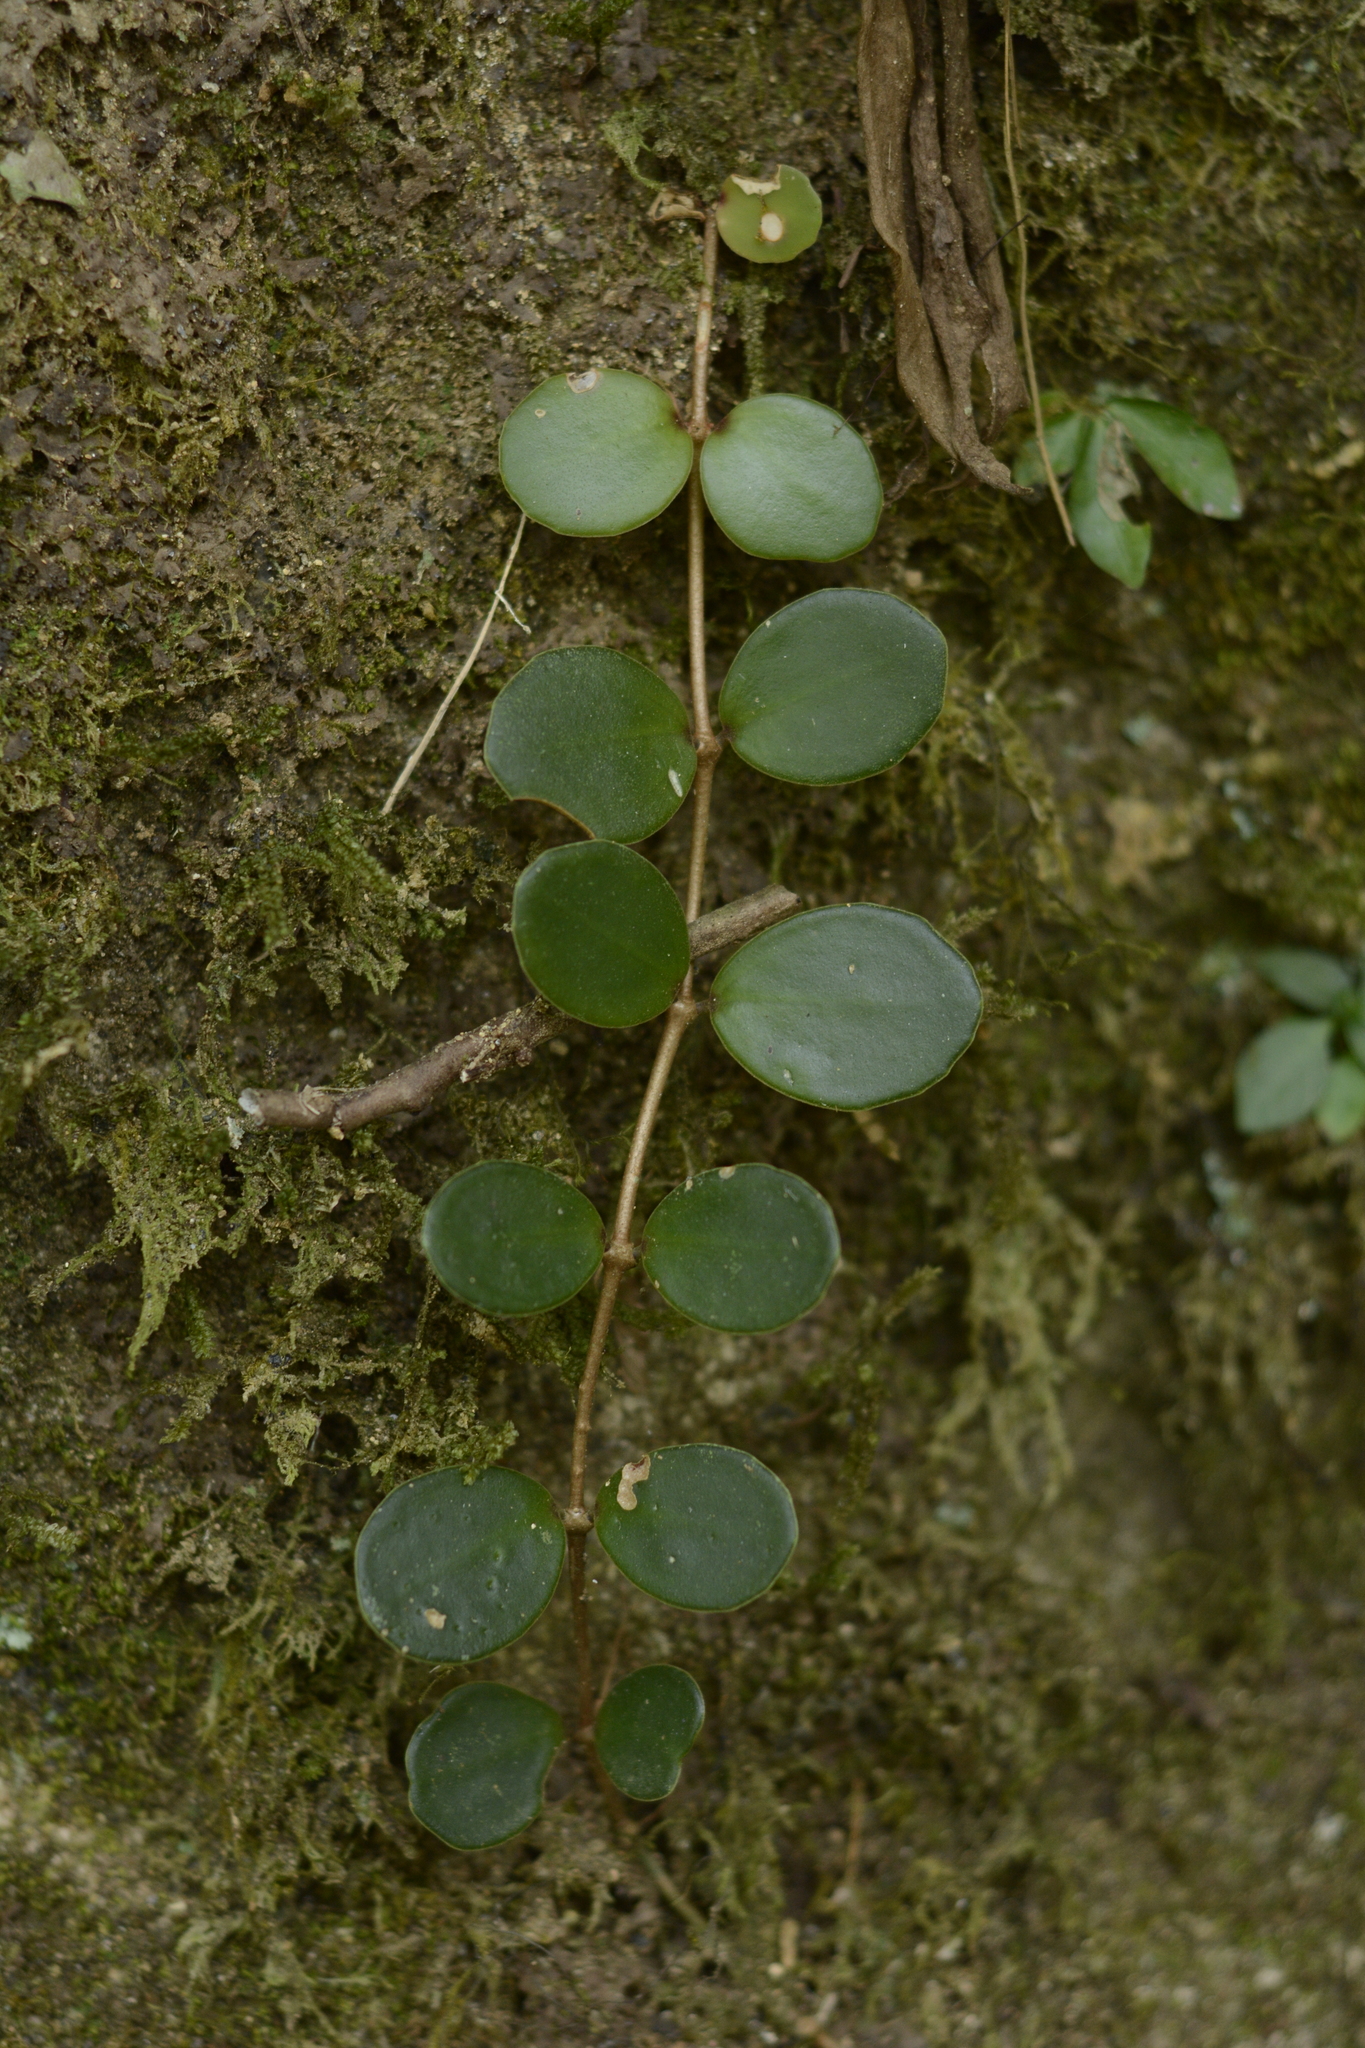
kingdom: Plantae
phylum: Tracheophyta
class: Magnoliopsida
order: Myrtales
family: Melastomataceae
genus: Medinilla
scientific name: Medinilla beddomei
